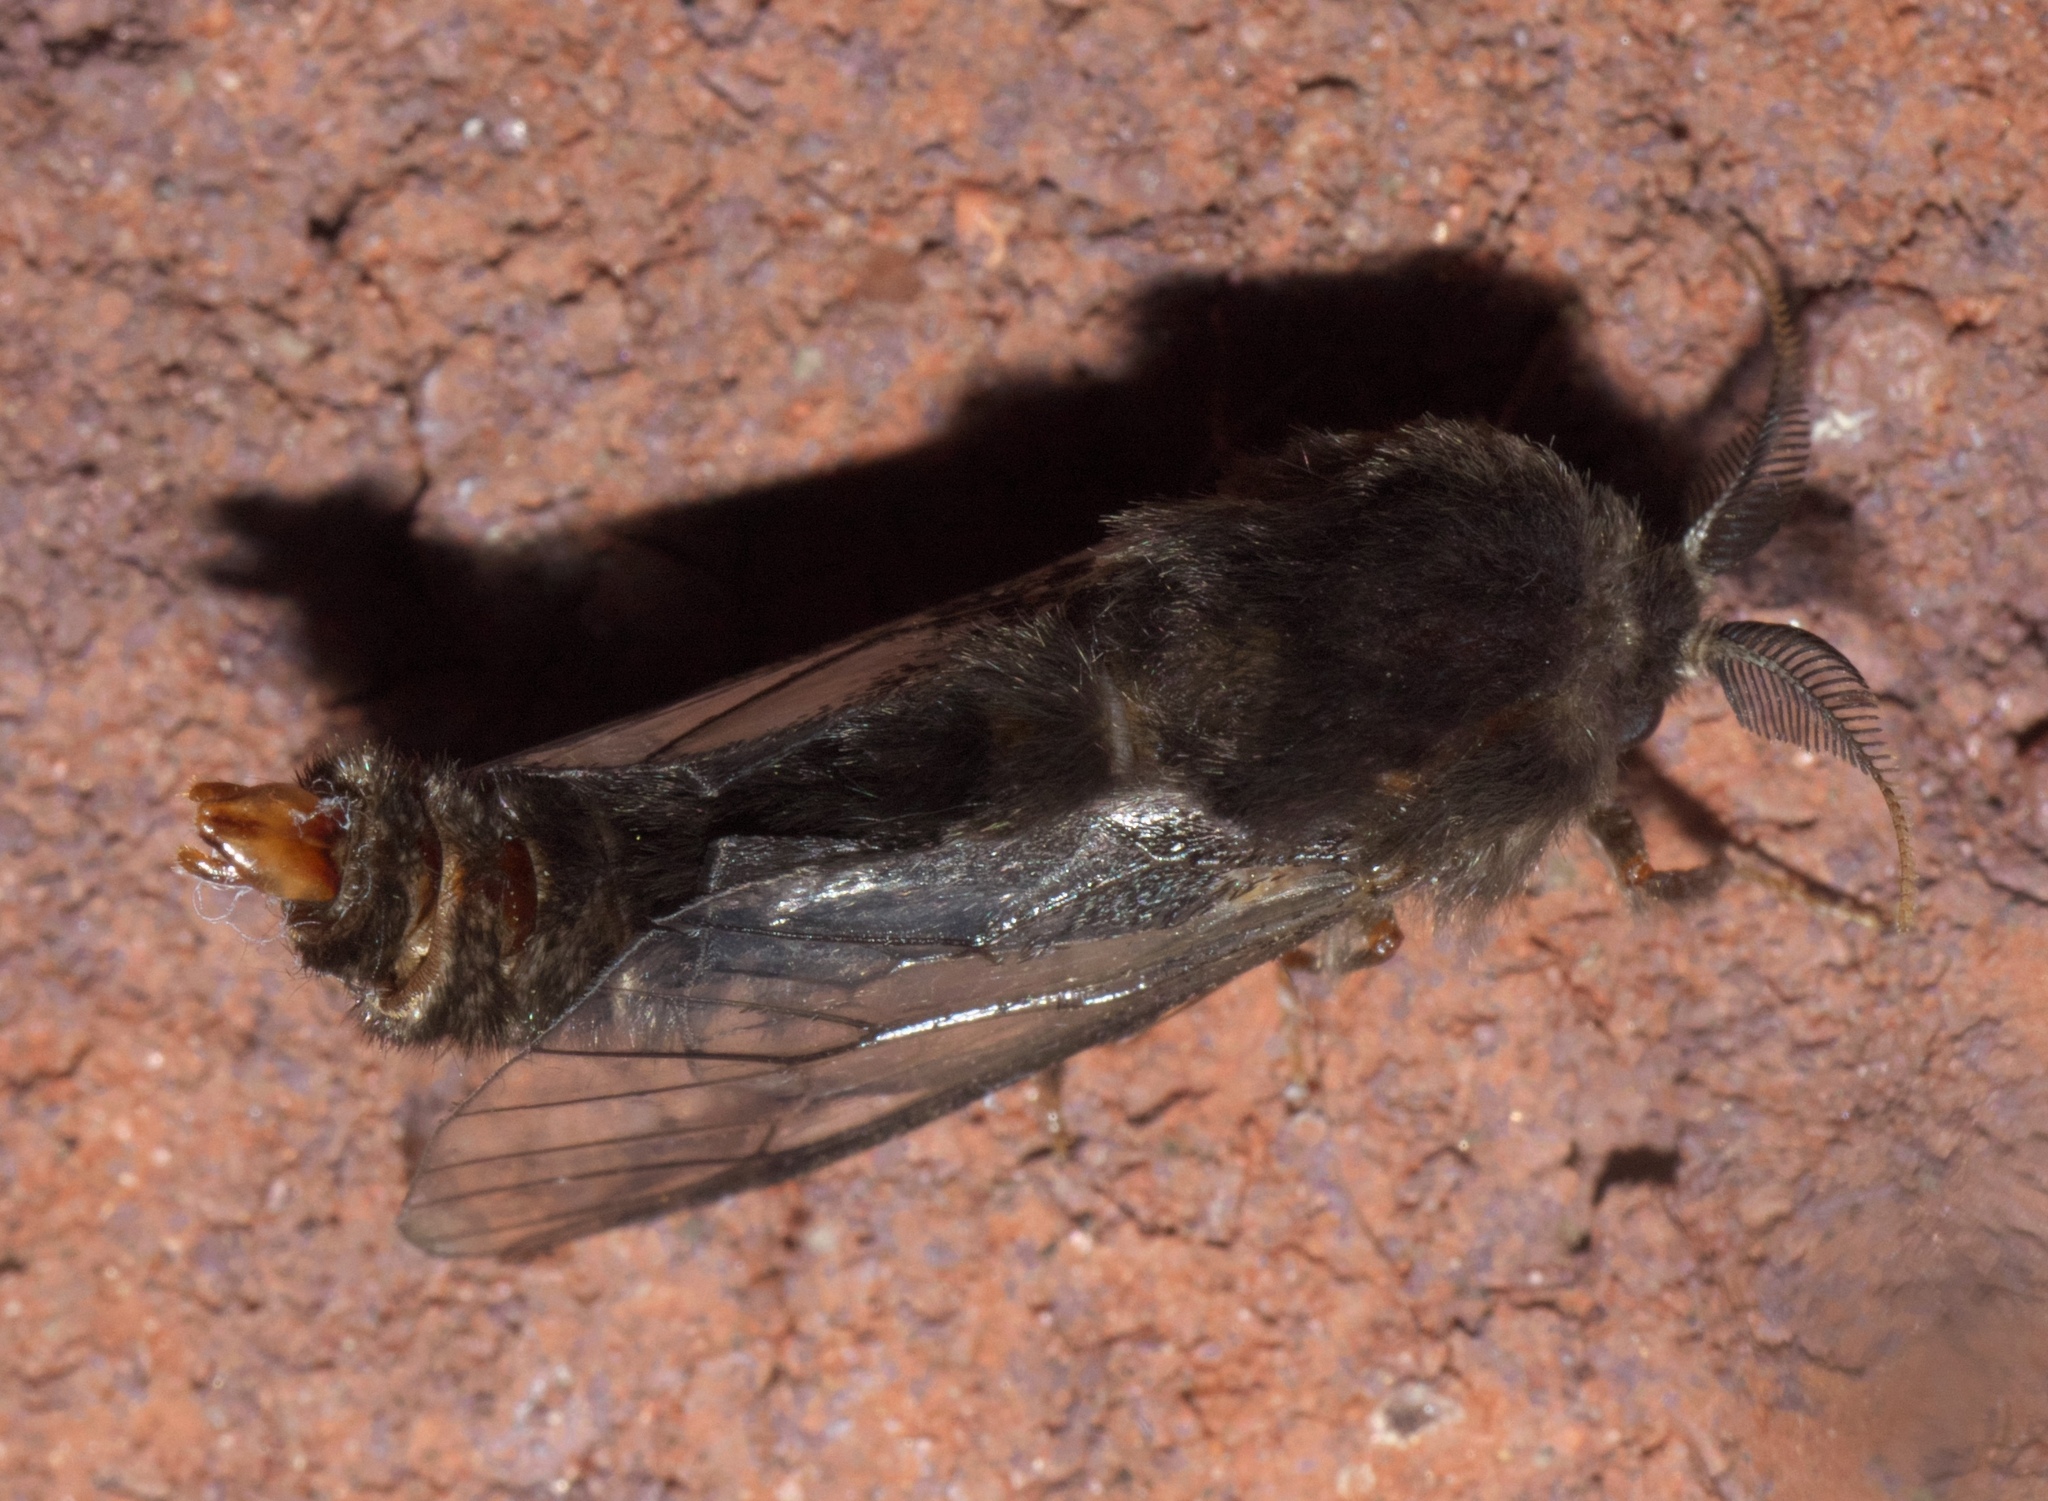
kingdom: Animalia
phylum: Arthropoda
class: Insecta
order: Lepidoptera
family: Psychidae
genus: Thyridopteryx
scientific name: Thyridopteryx ephemeraeformis
